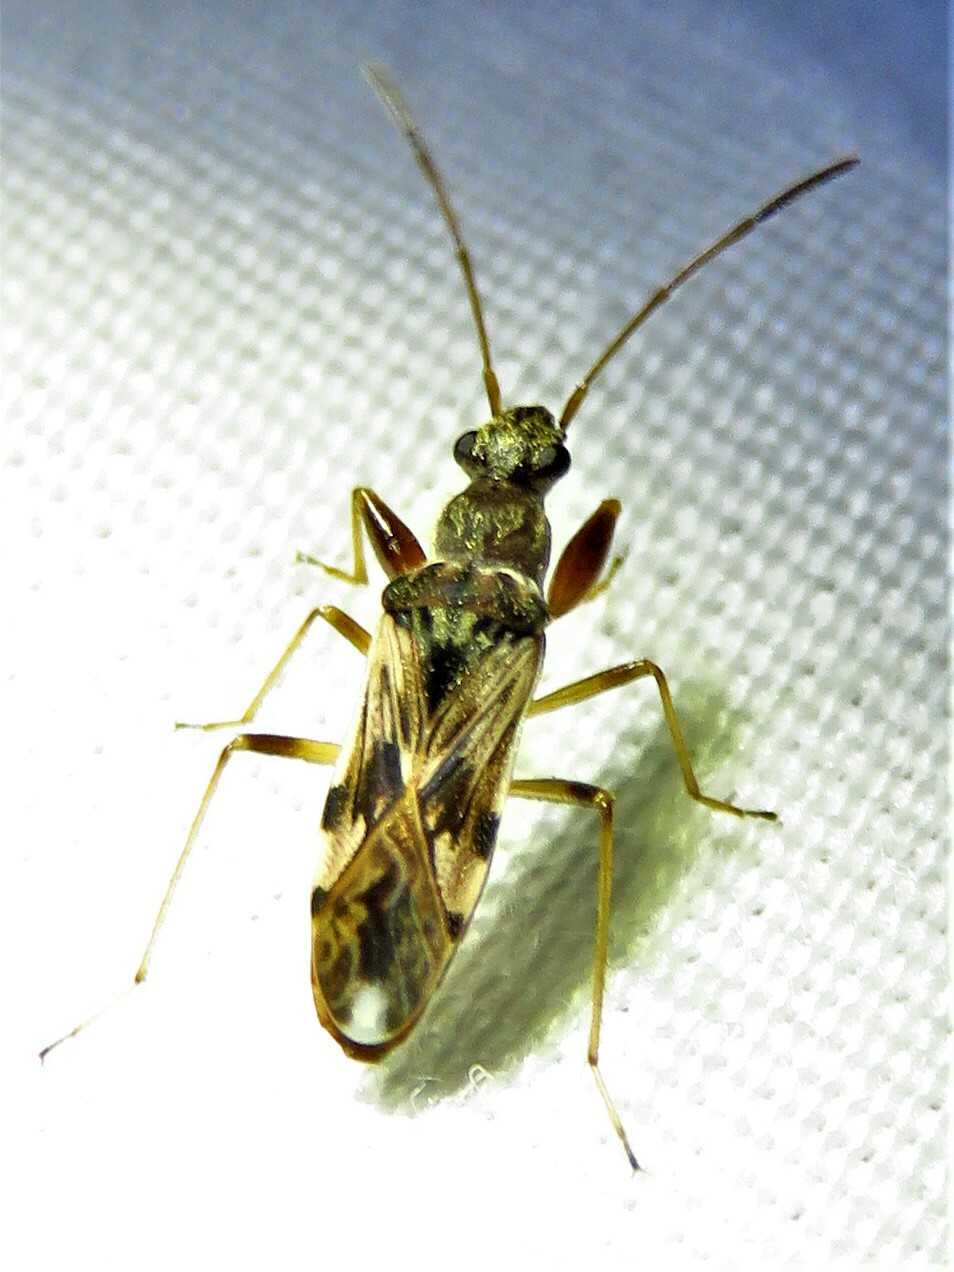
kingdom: Animalia
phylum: Arthropoda
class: Insecta
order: Hemiptera
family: Rhyparochromidae
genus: Neopamera
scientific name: Neopamera bilobata
